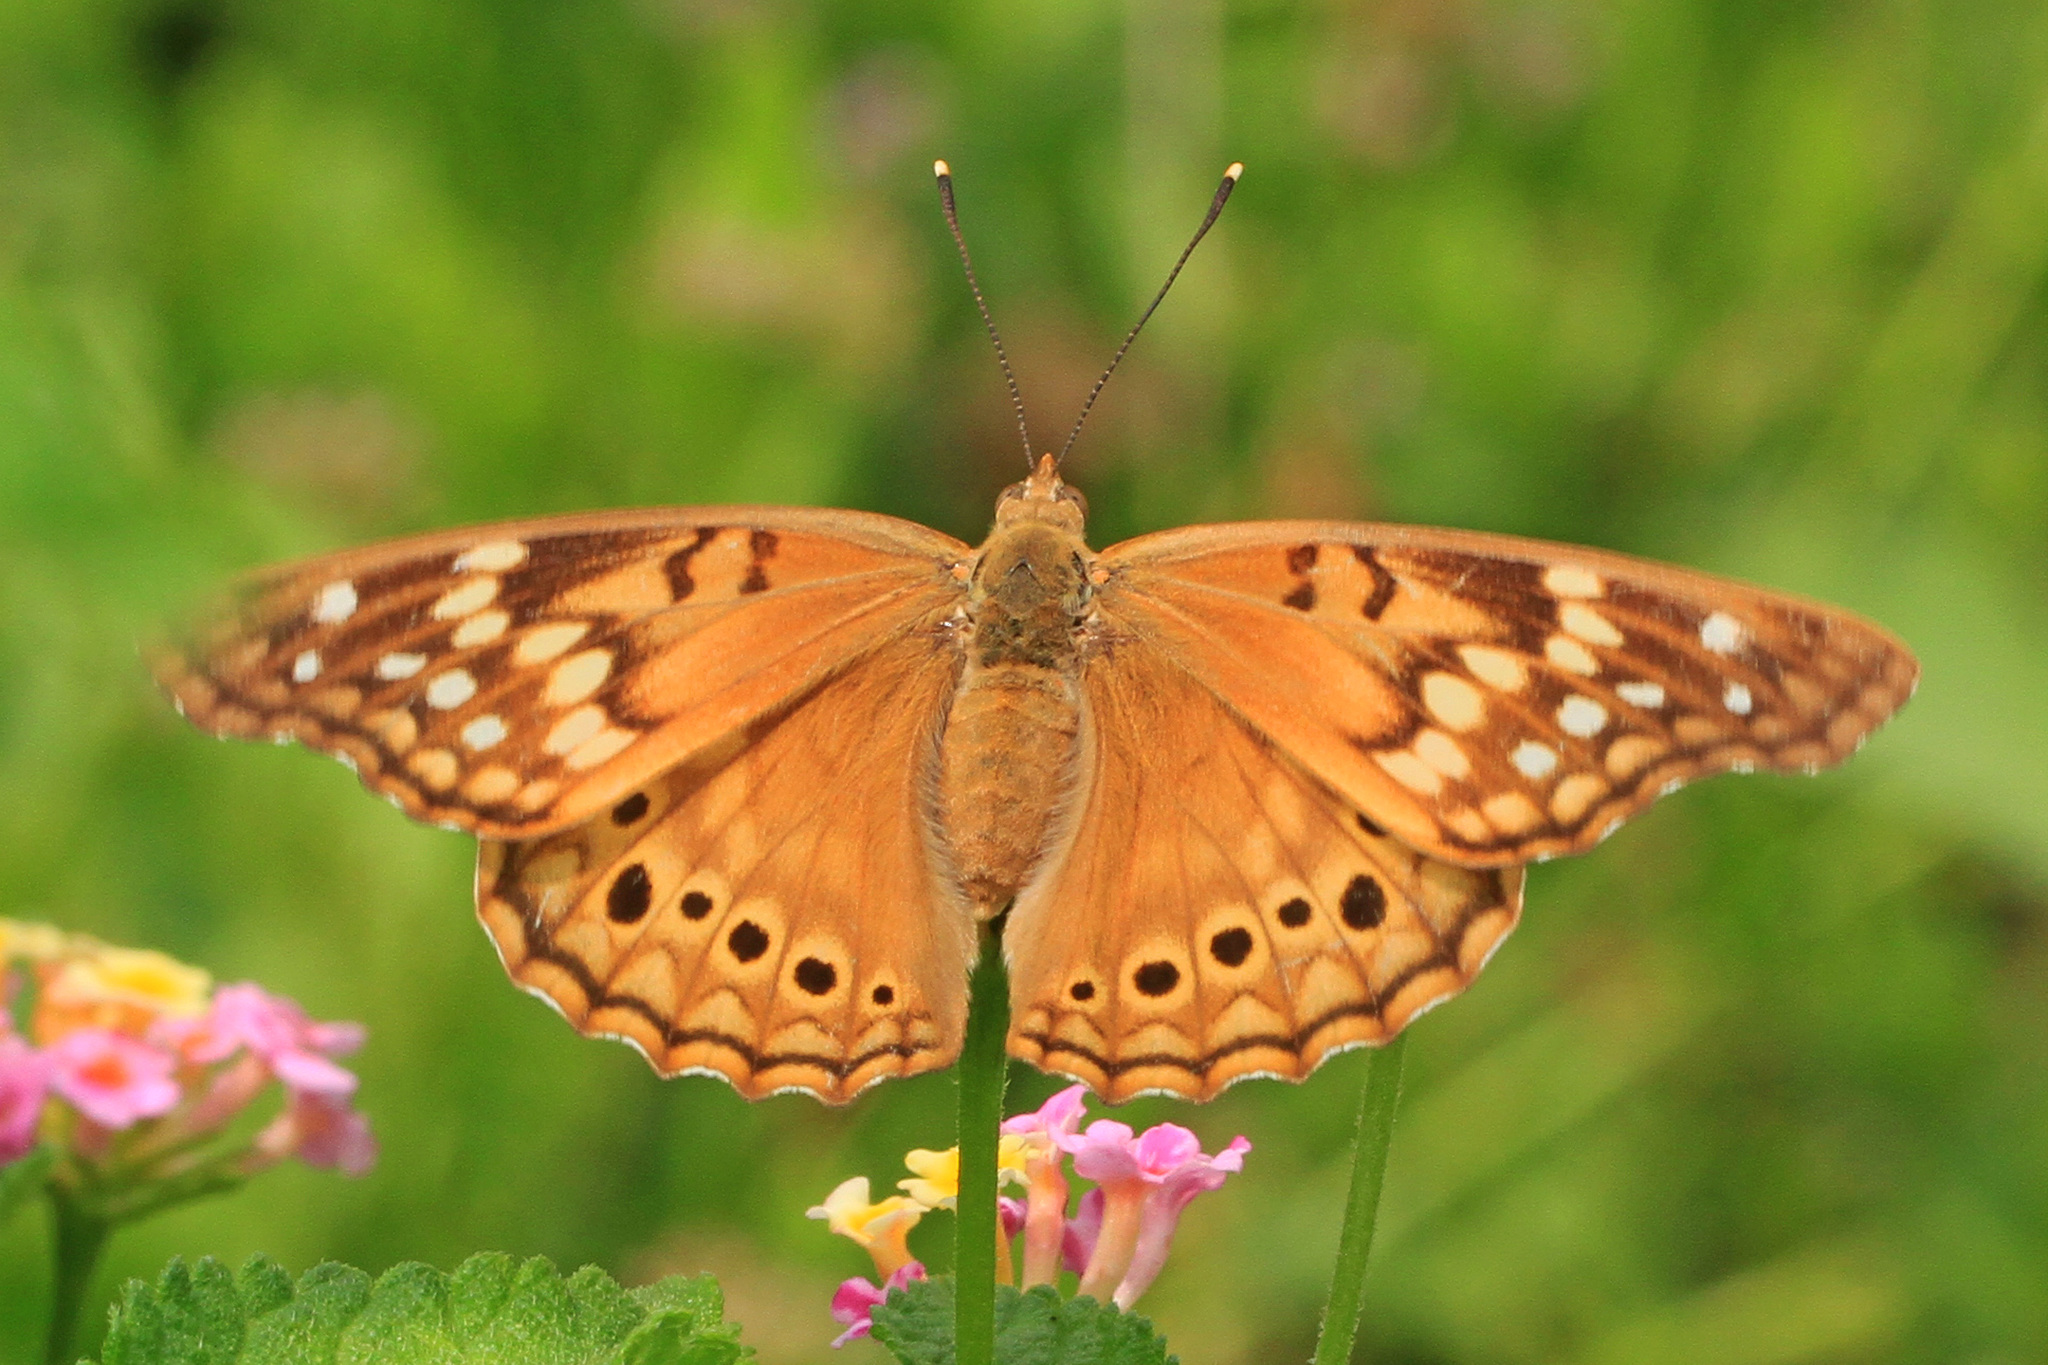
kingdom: Animalia
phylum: Arthropoda
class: Insecta
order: Lepidoptera
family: Nymphalidae
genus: Asterocampa
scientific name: Asterocampa clyton
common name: Tawny emperor
